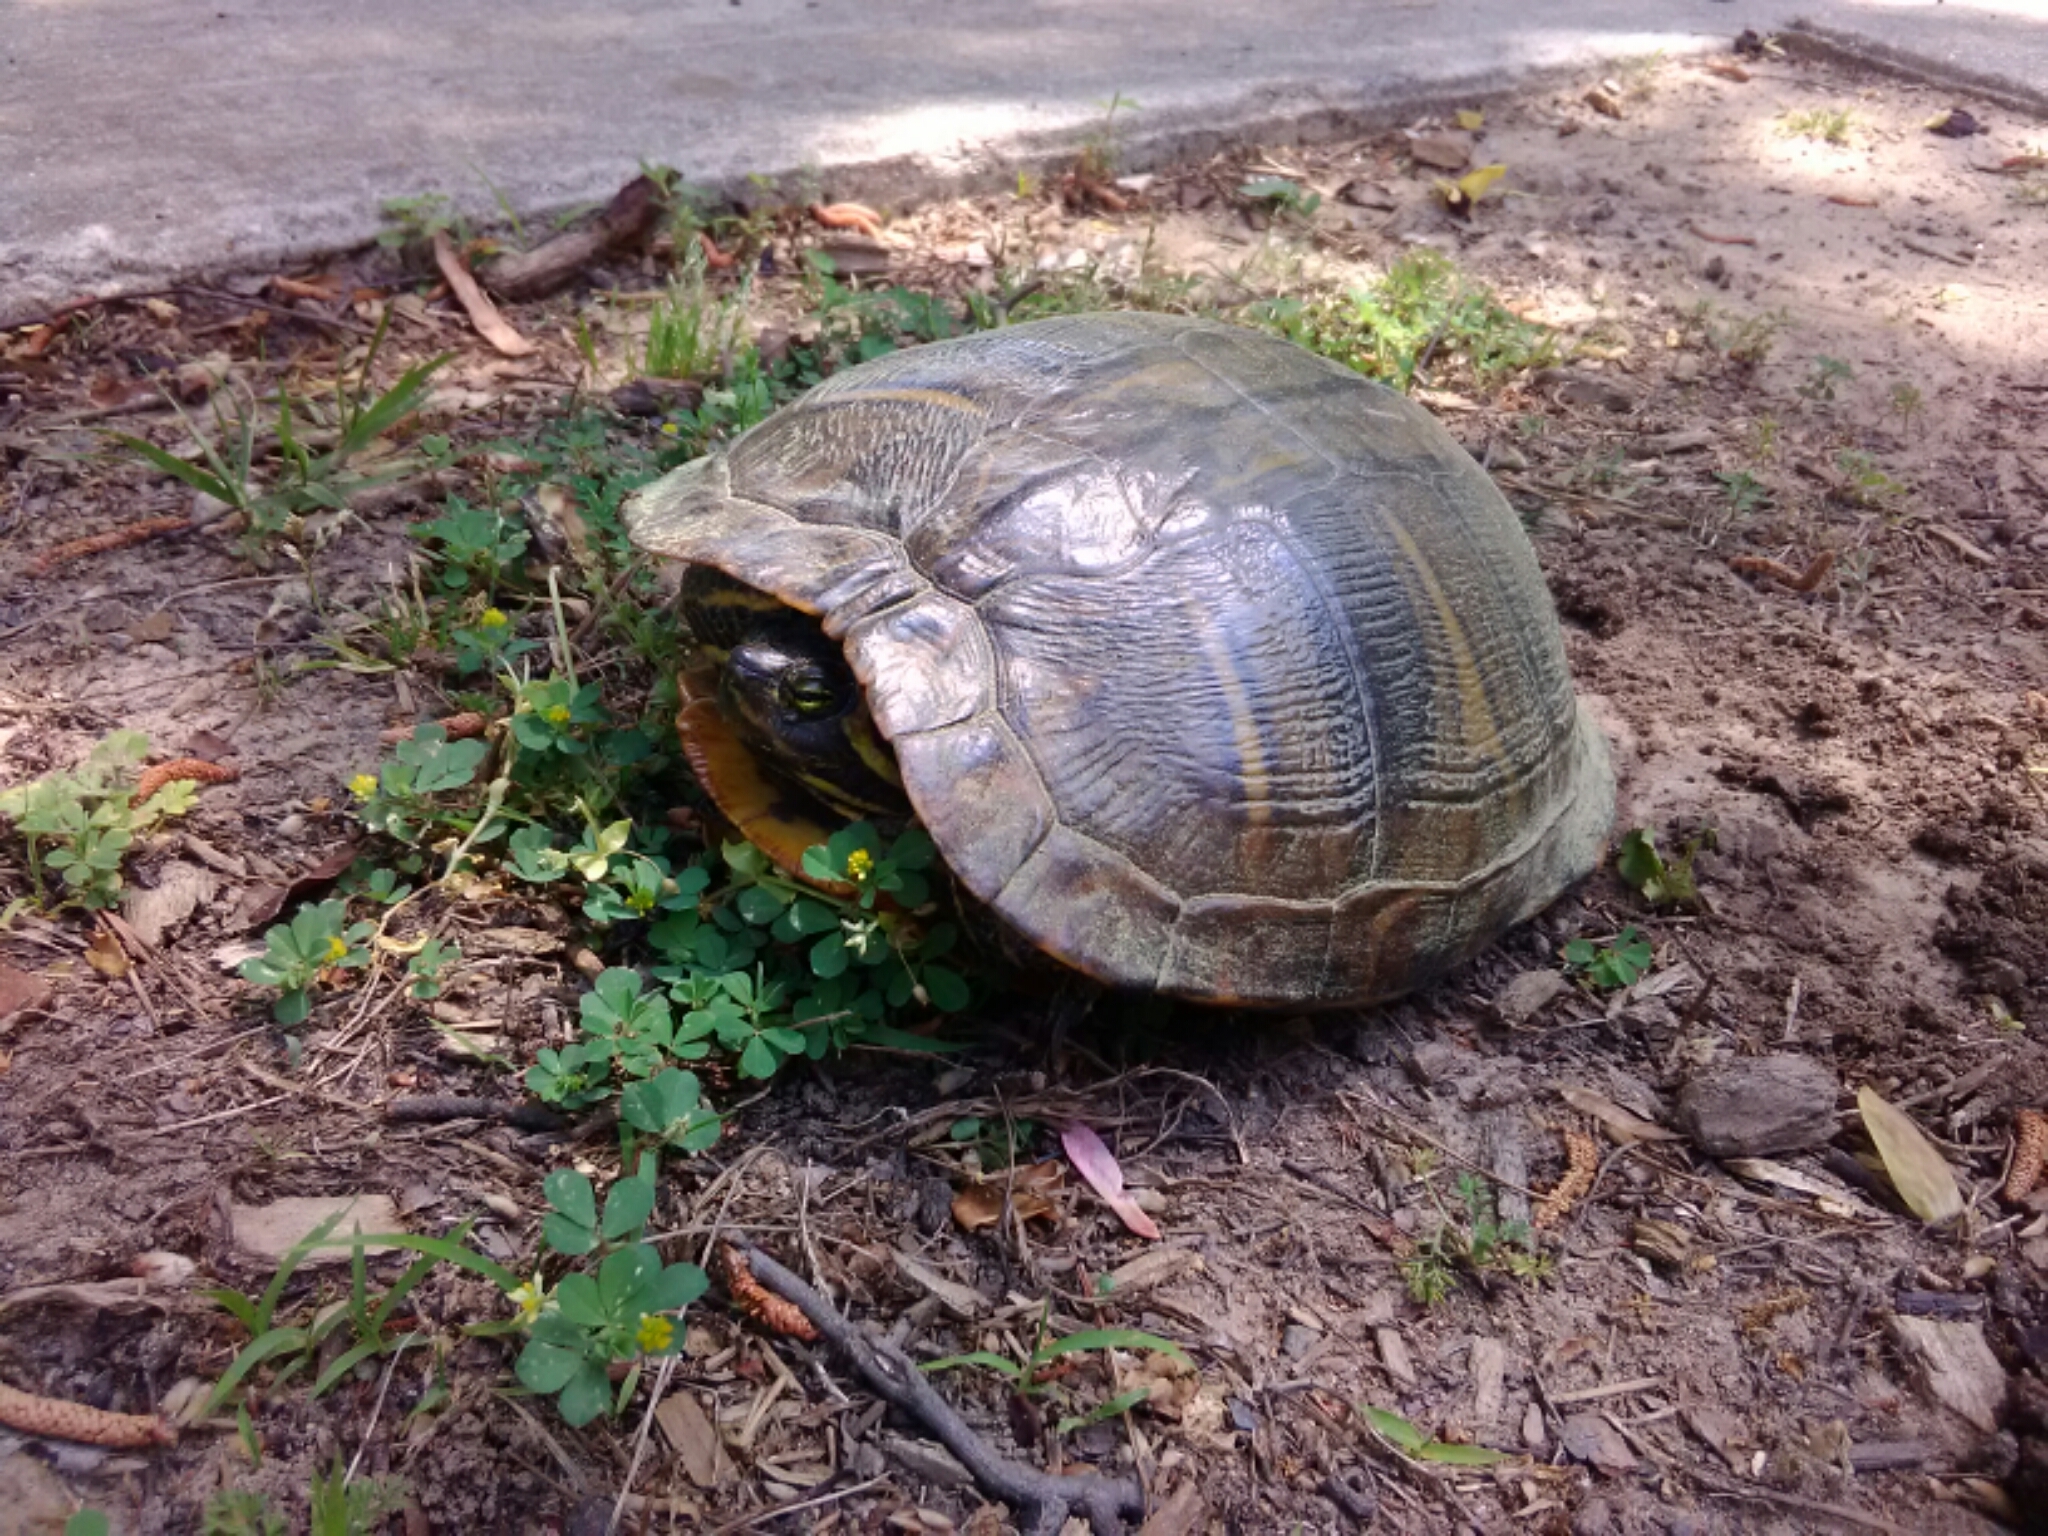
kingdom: Animalia
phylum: Chordata
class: Testudines
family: Emydidae
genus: Trachemys
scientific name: Trachemys scripta
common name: Slider
